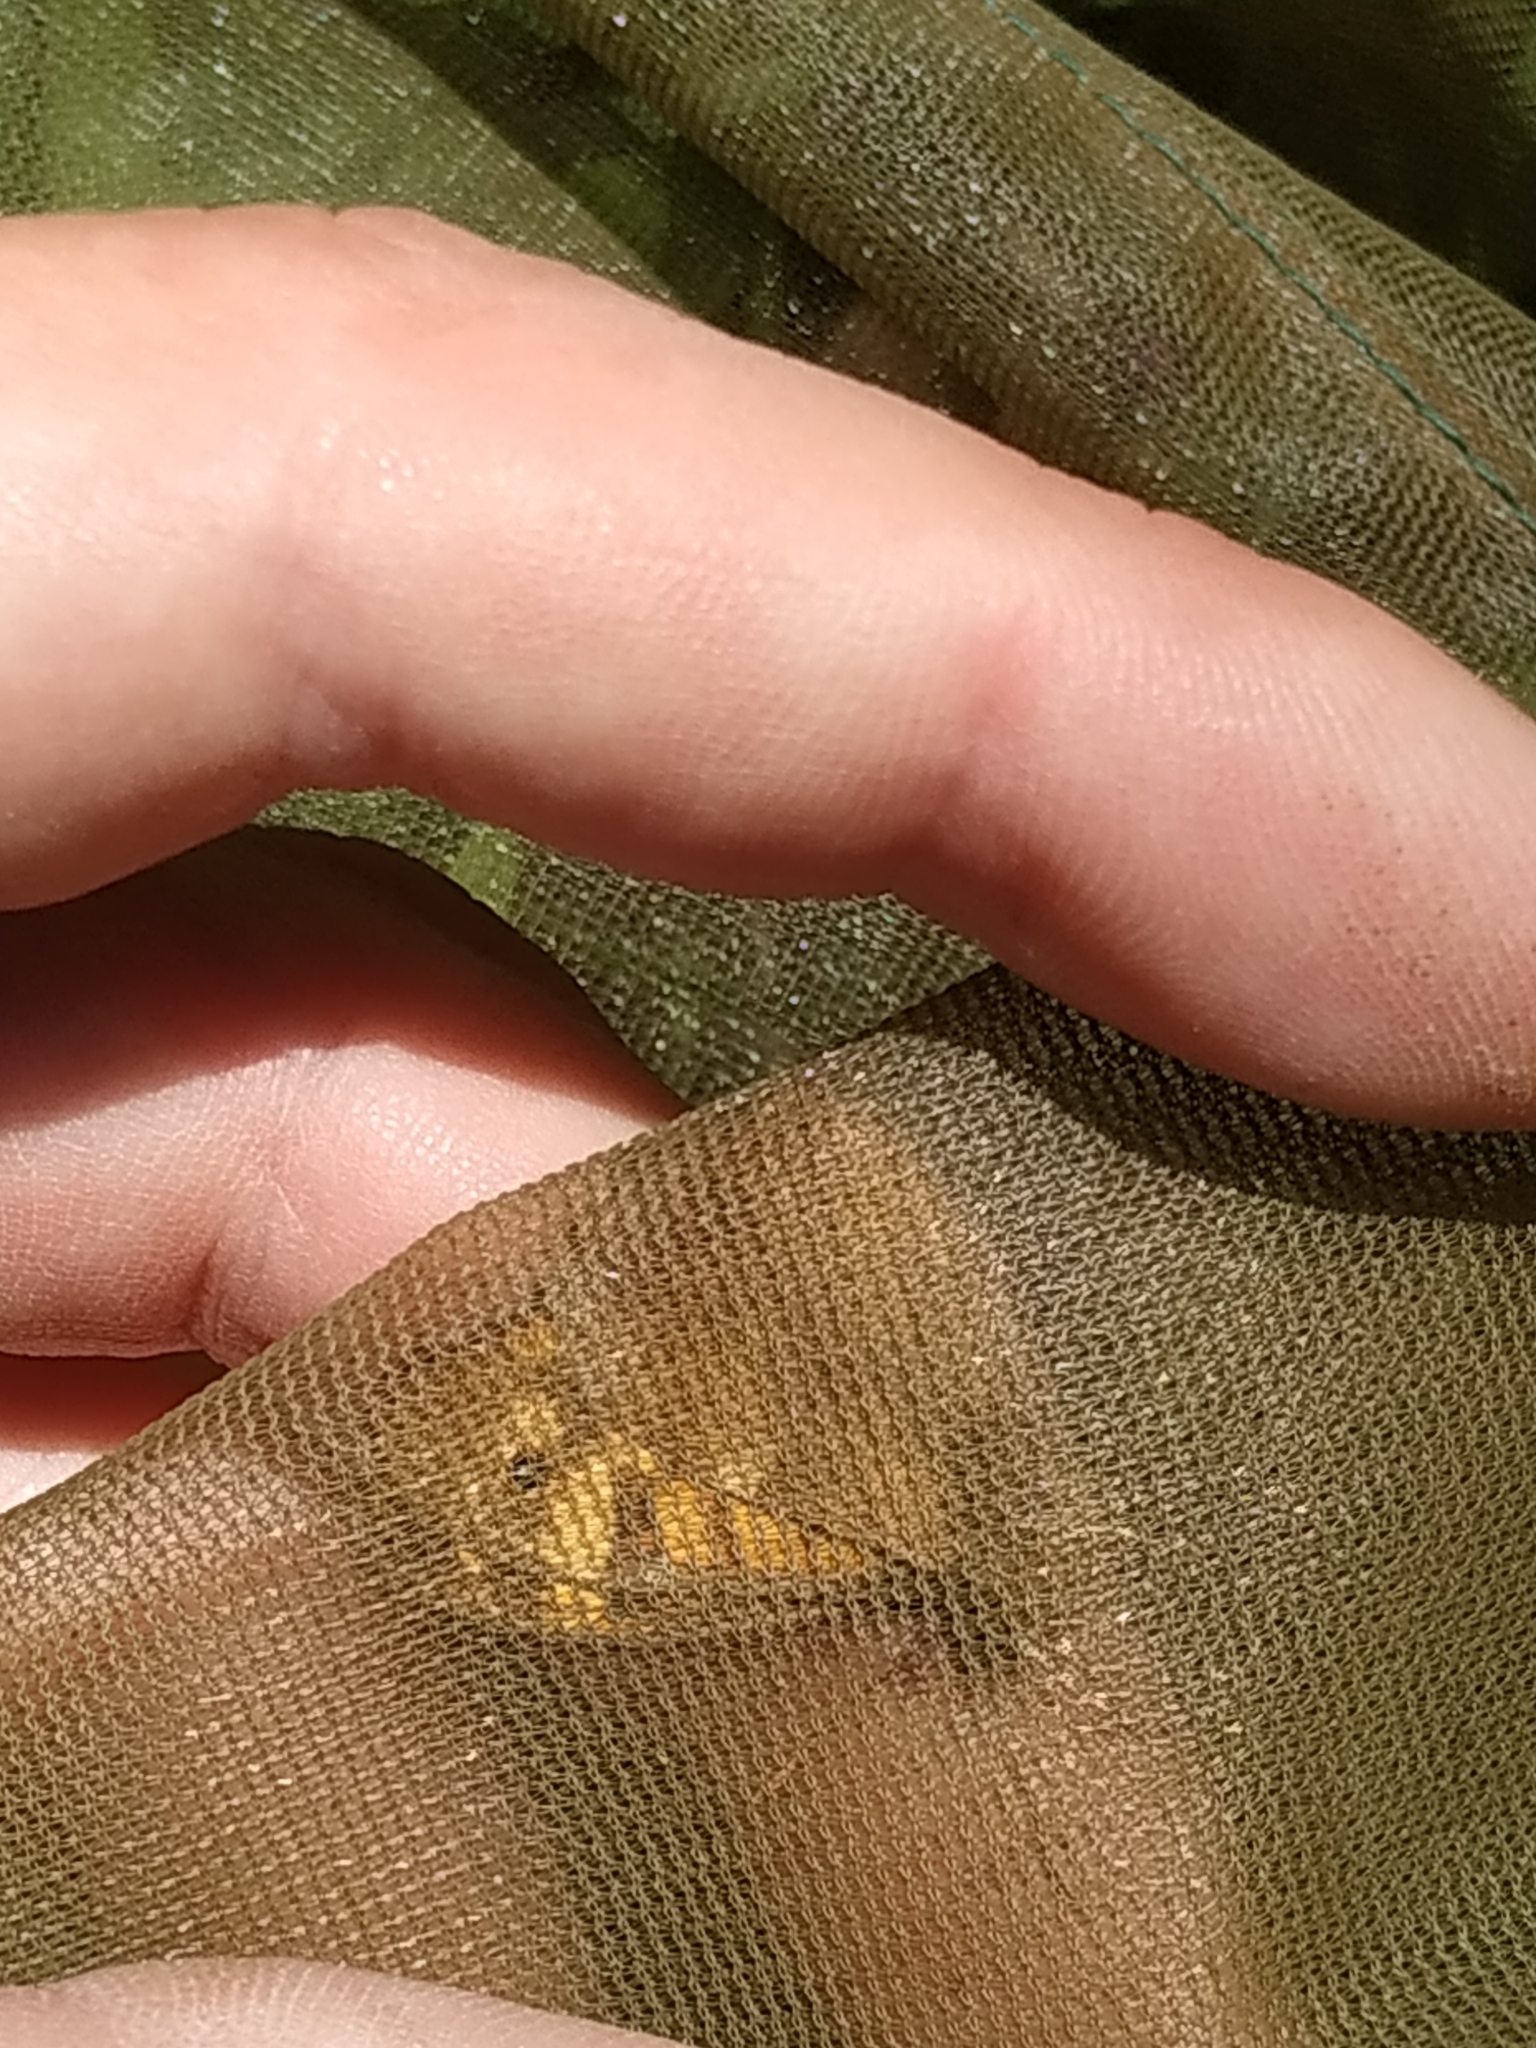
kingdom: Animalia
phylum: Arthropoda
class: Insecta
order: Lepidoptera
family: Nymphalidae
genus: Pararge
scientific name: Pararge aegeria
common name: Speckled wood
